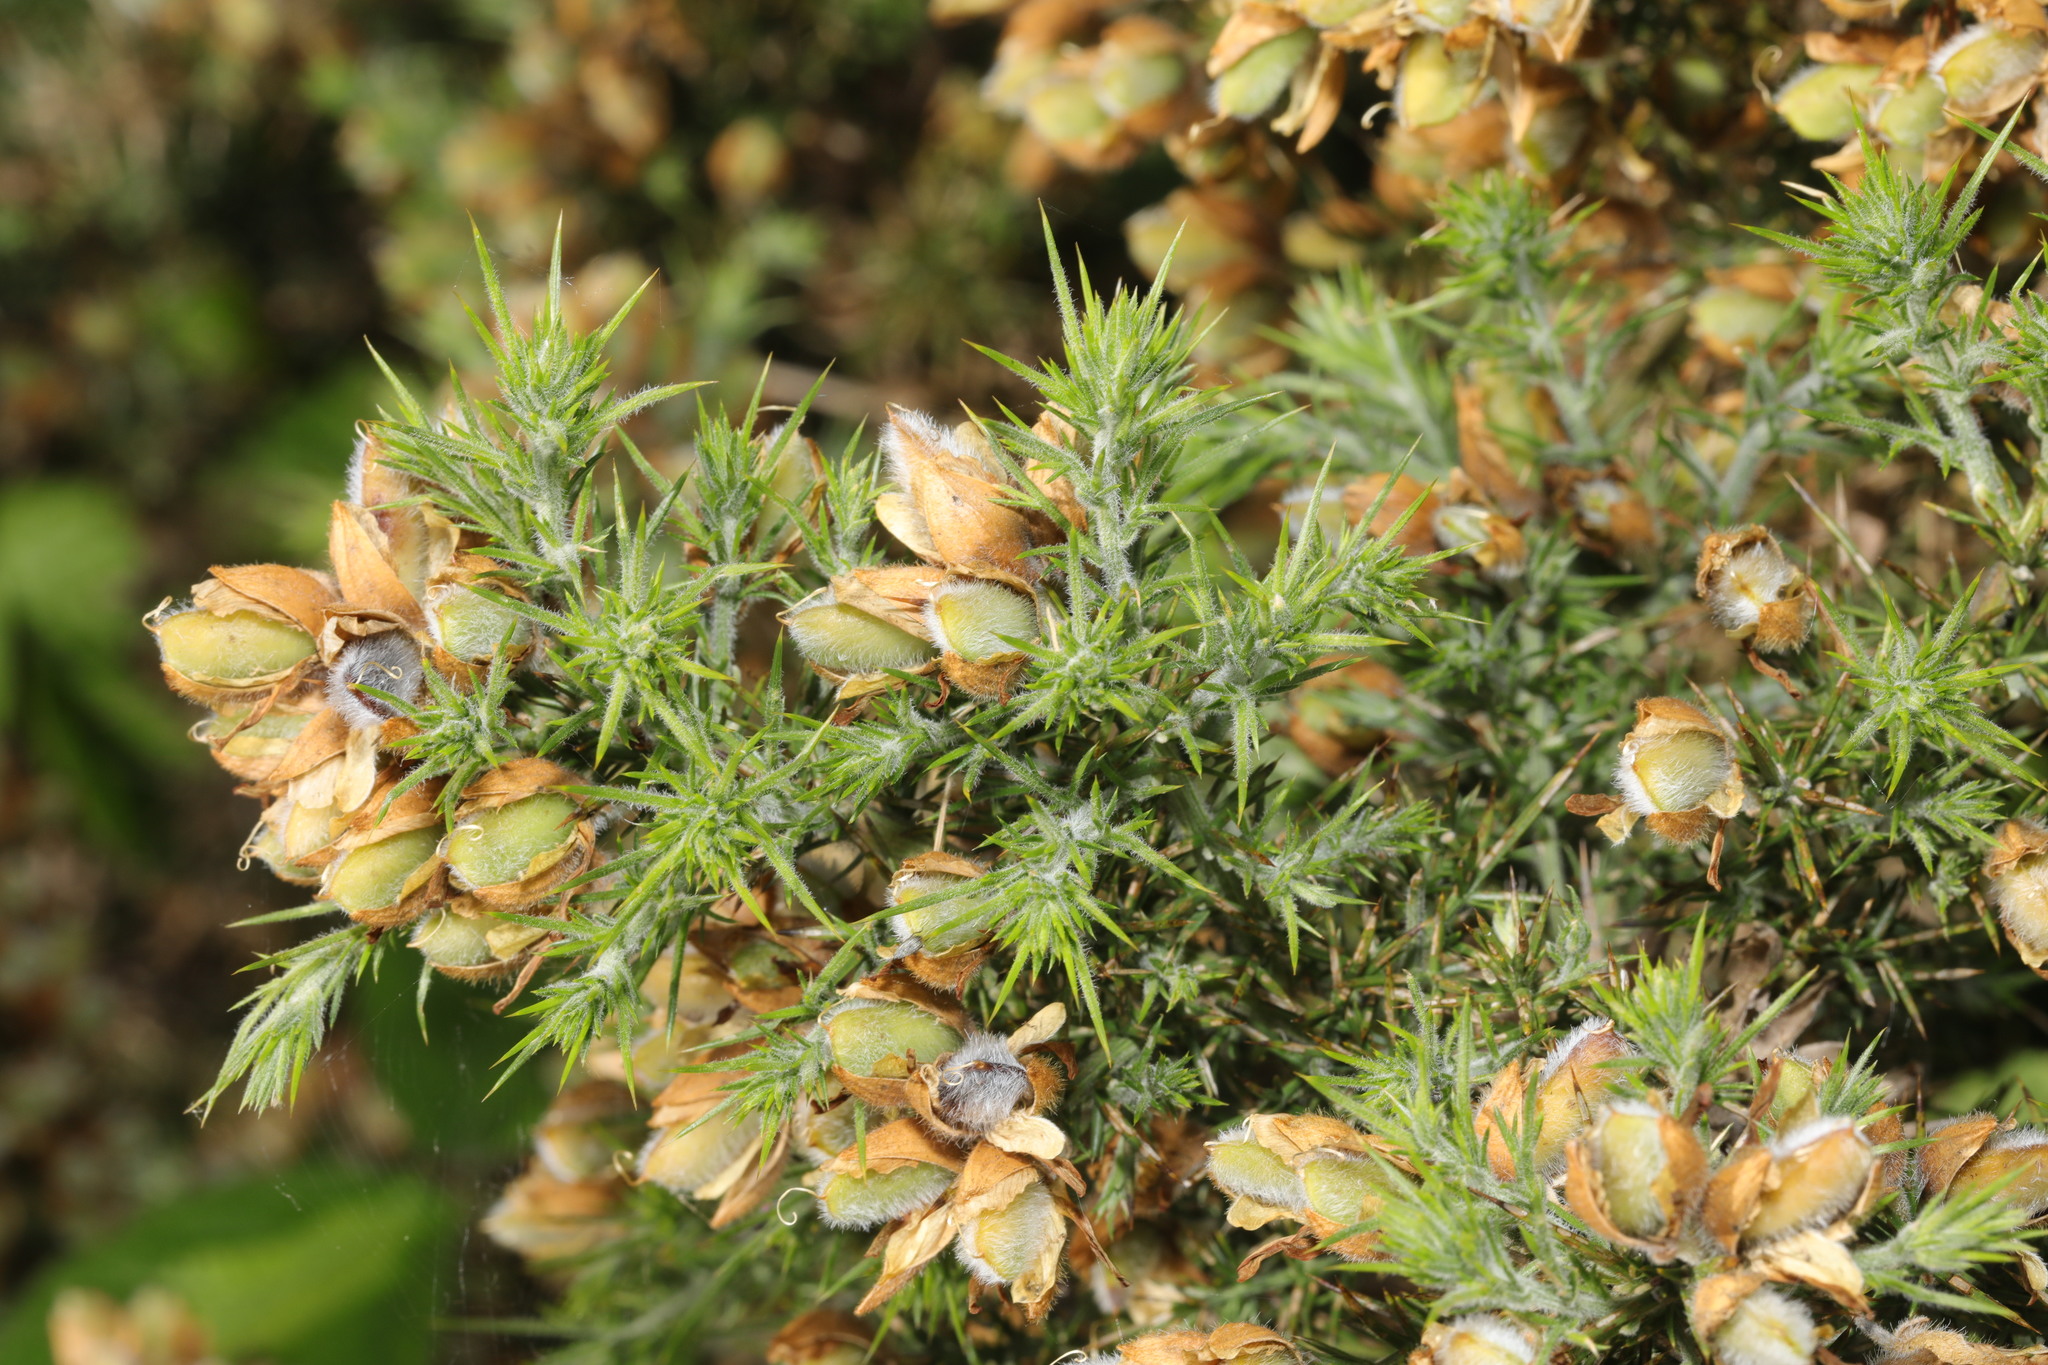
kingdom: Plantae
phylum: Tracheophyta
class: Magnoliopsida
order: Fabales
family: Fabaceae
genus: Ulex
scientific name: Ulex europaeus
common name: Common gorse
